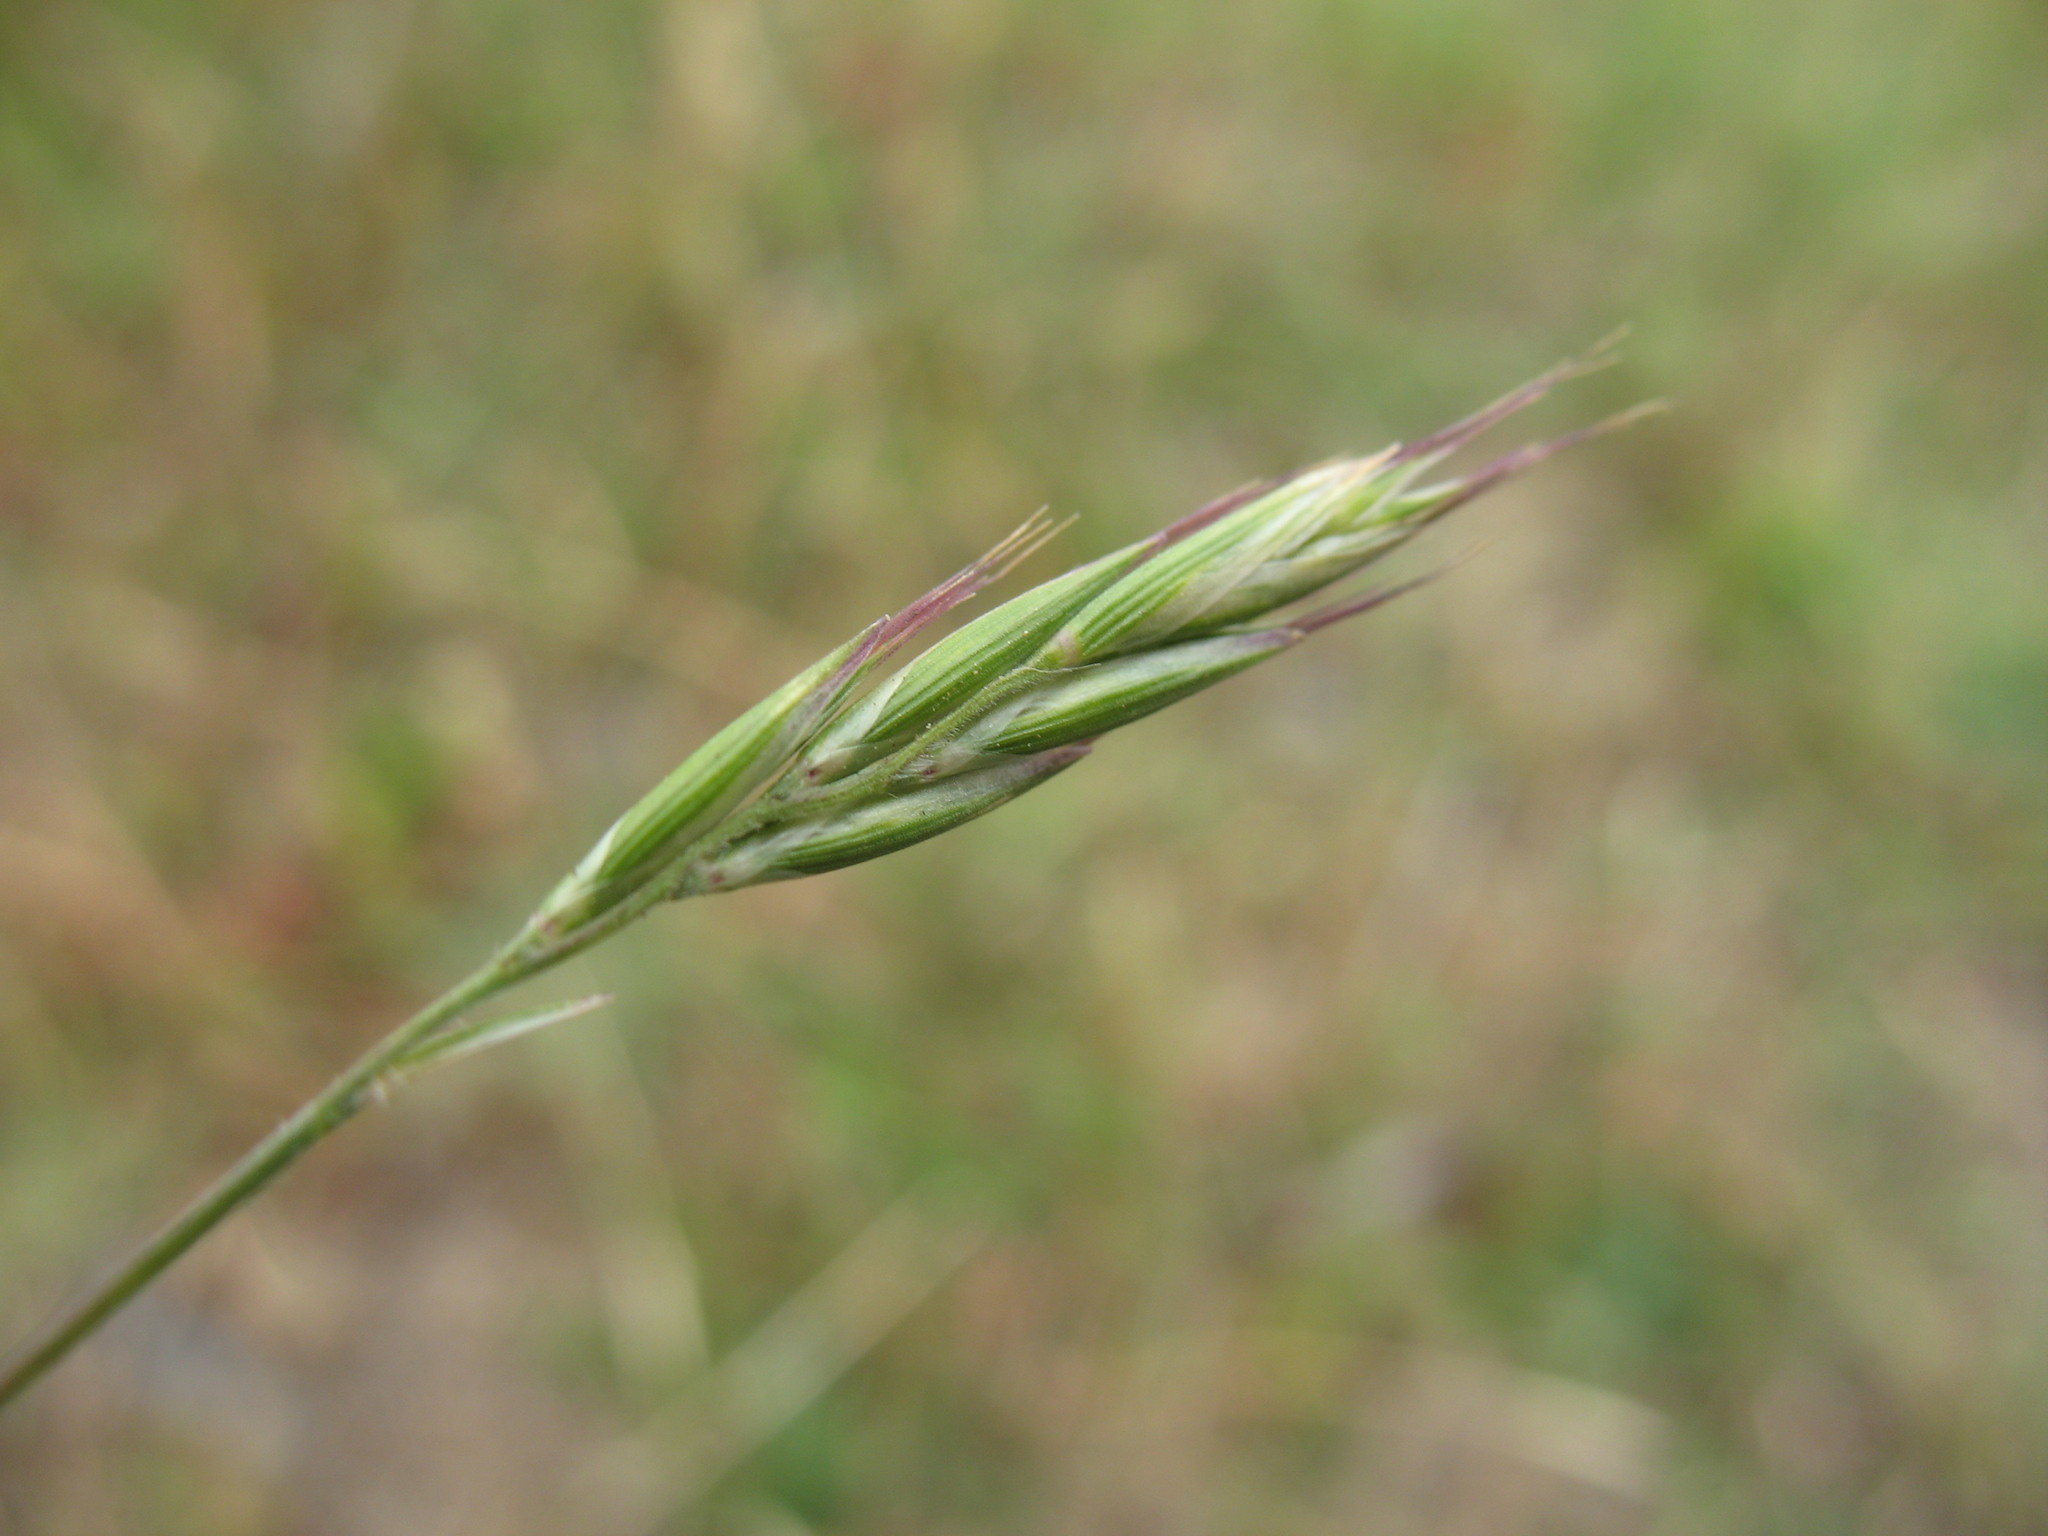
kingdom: Plantae
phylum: Tracheophyta
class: Liliopsida
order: Poales
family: Poaceae
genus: Rytidosperma
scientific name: Rytidosperma clavatum
